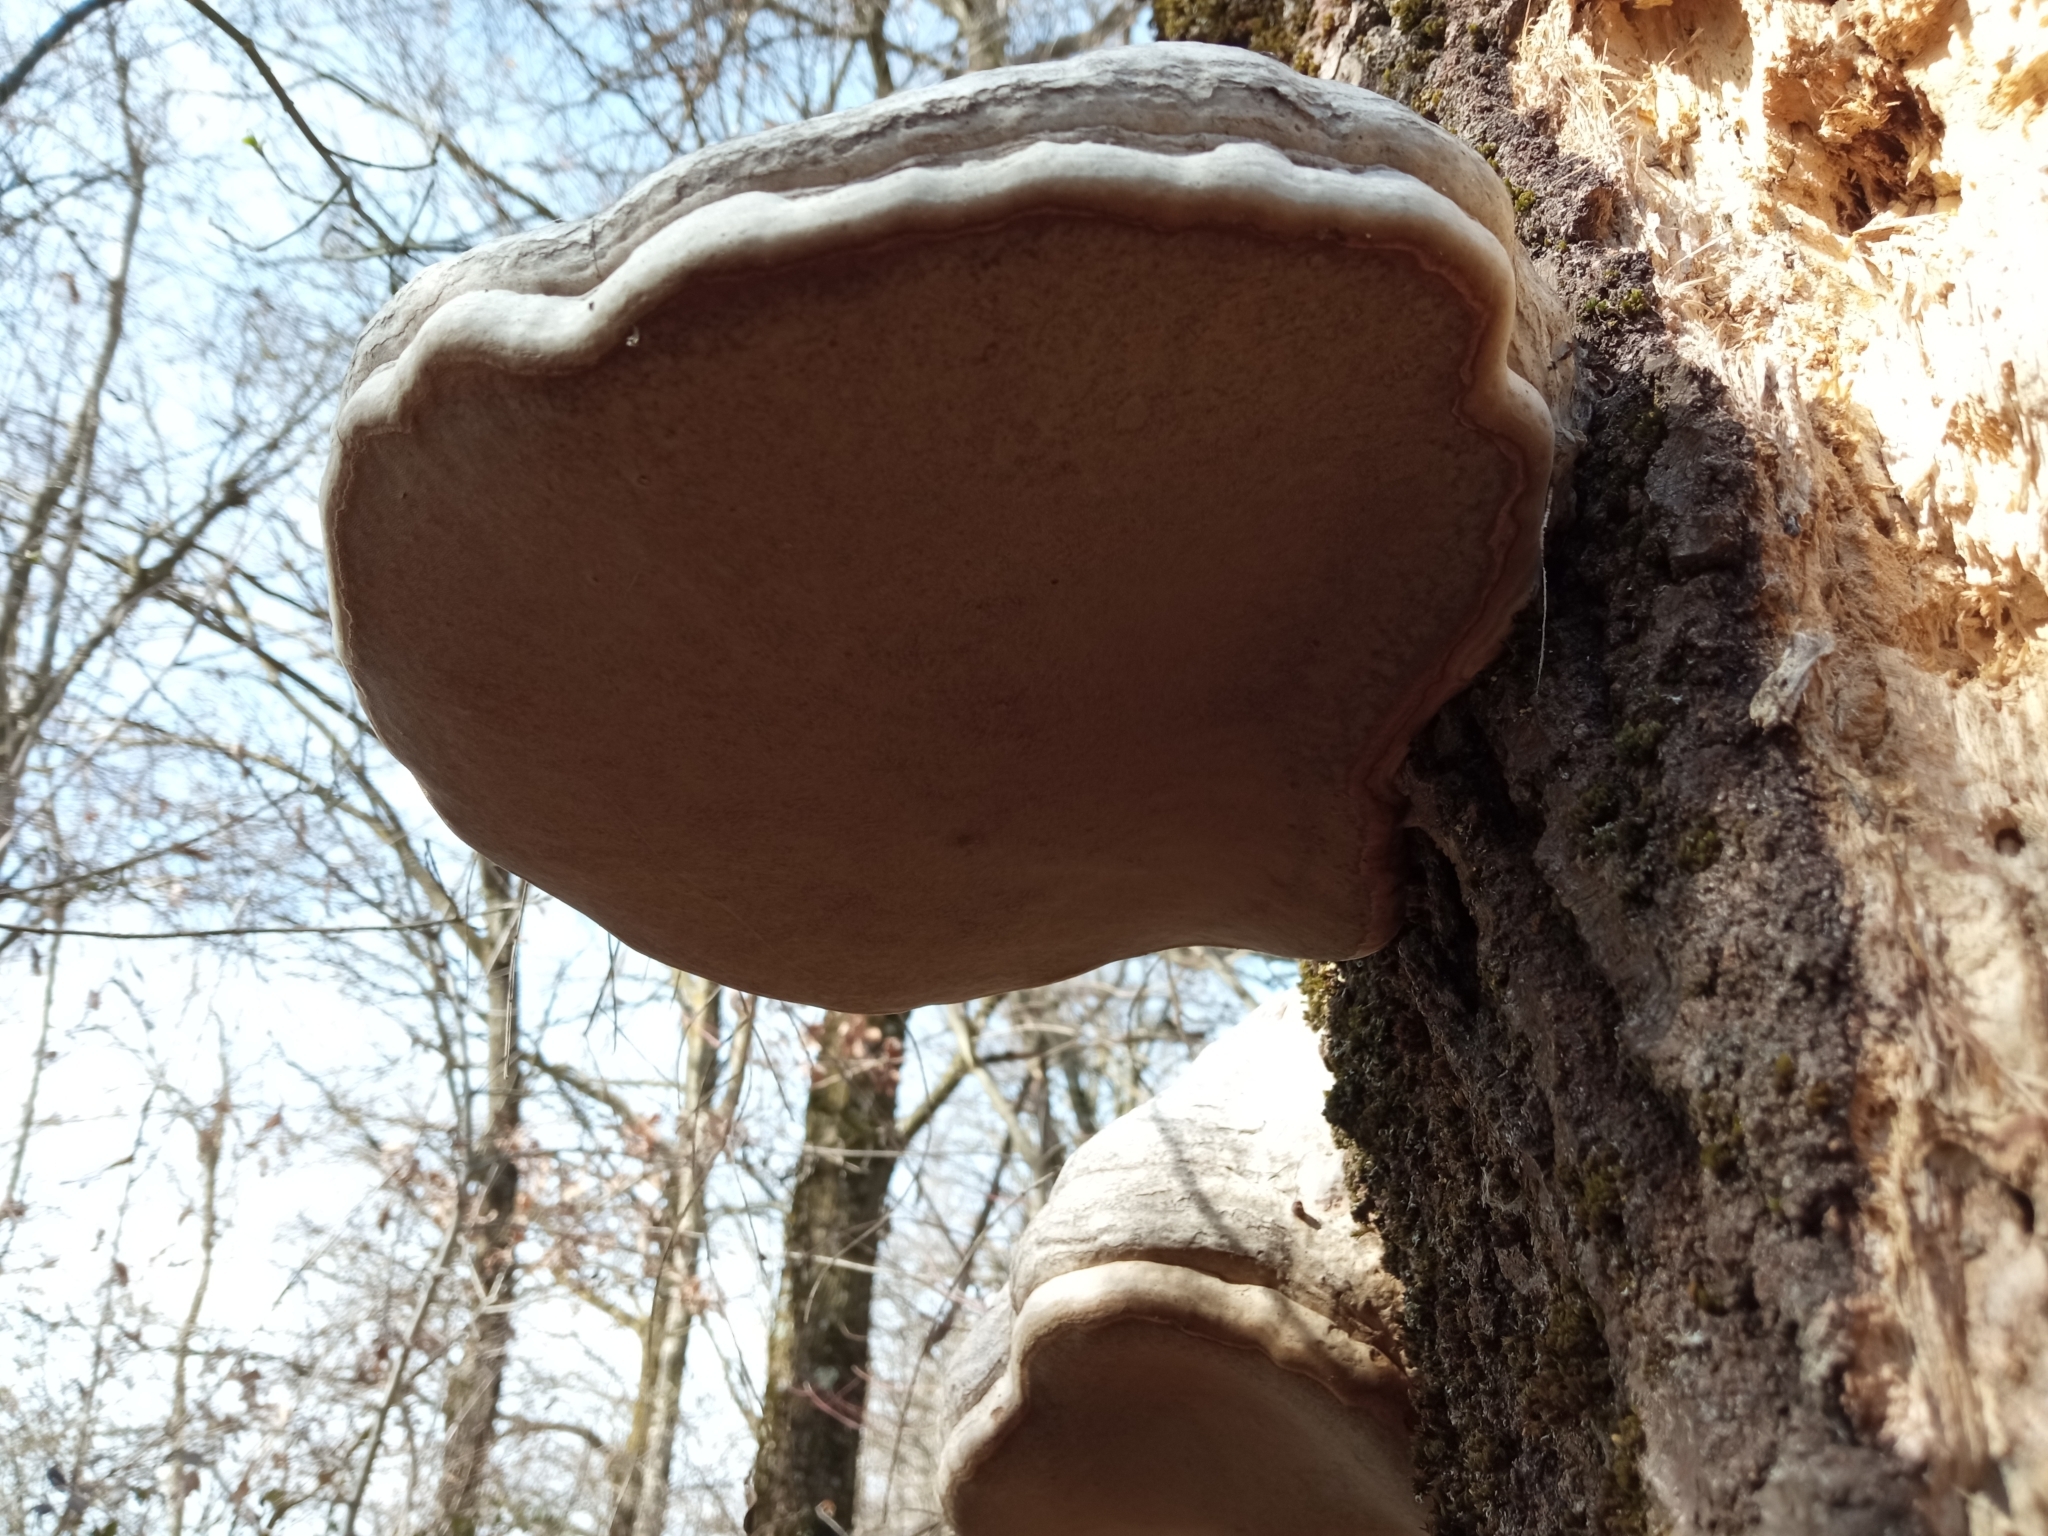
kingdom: Fungi
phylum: Basidiomycota
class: Agaricomycetes
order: Polyporales
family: Polyporaceae
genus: Fomes
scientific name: Fomes fomentarius
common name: Hoof fungus
